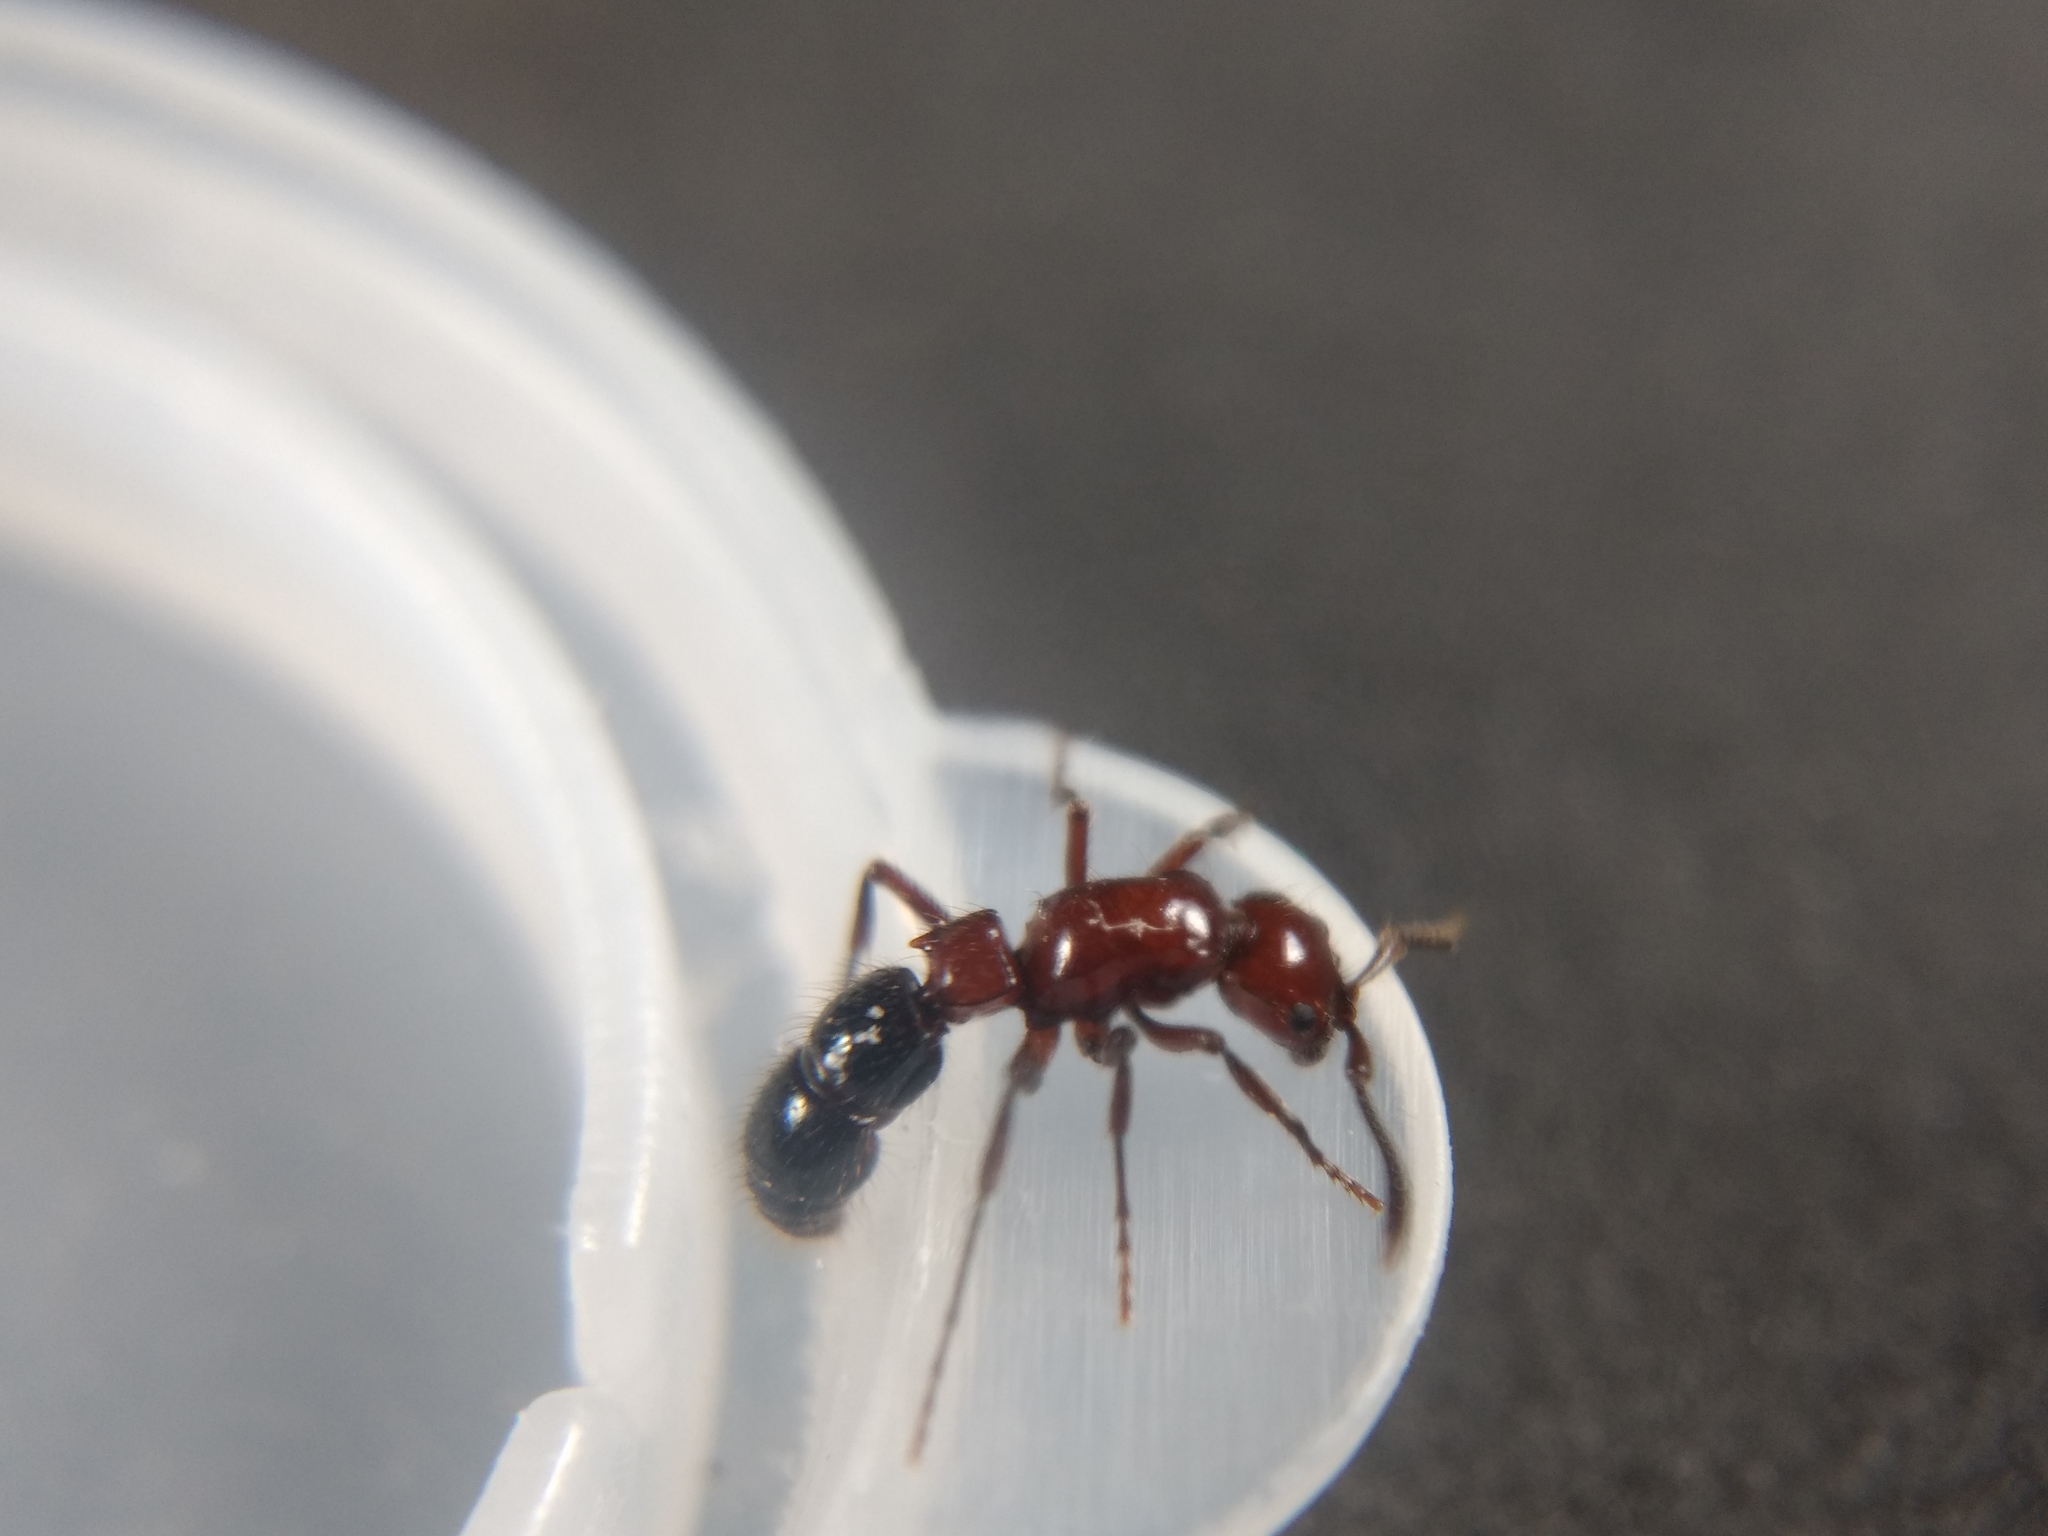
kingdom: Animalia
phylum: Arthropoda
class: Insecta
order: Hymenoptera
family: Formicidae
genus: Lioponera
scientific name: Lioponera
